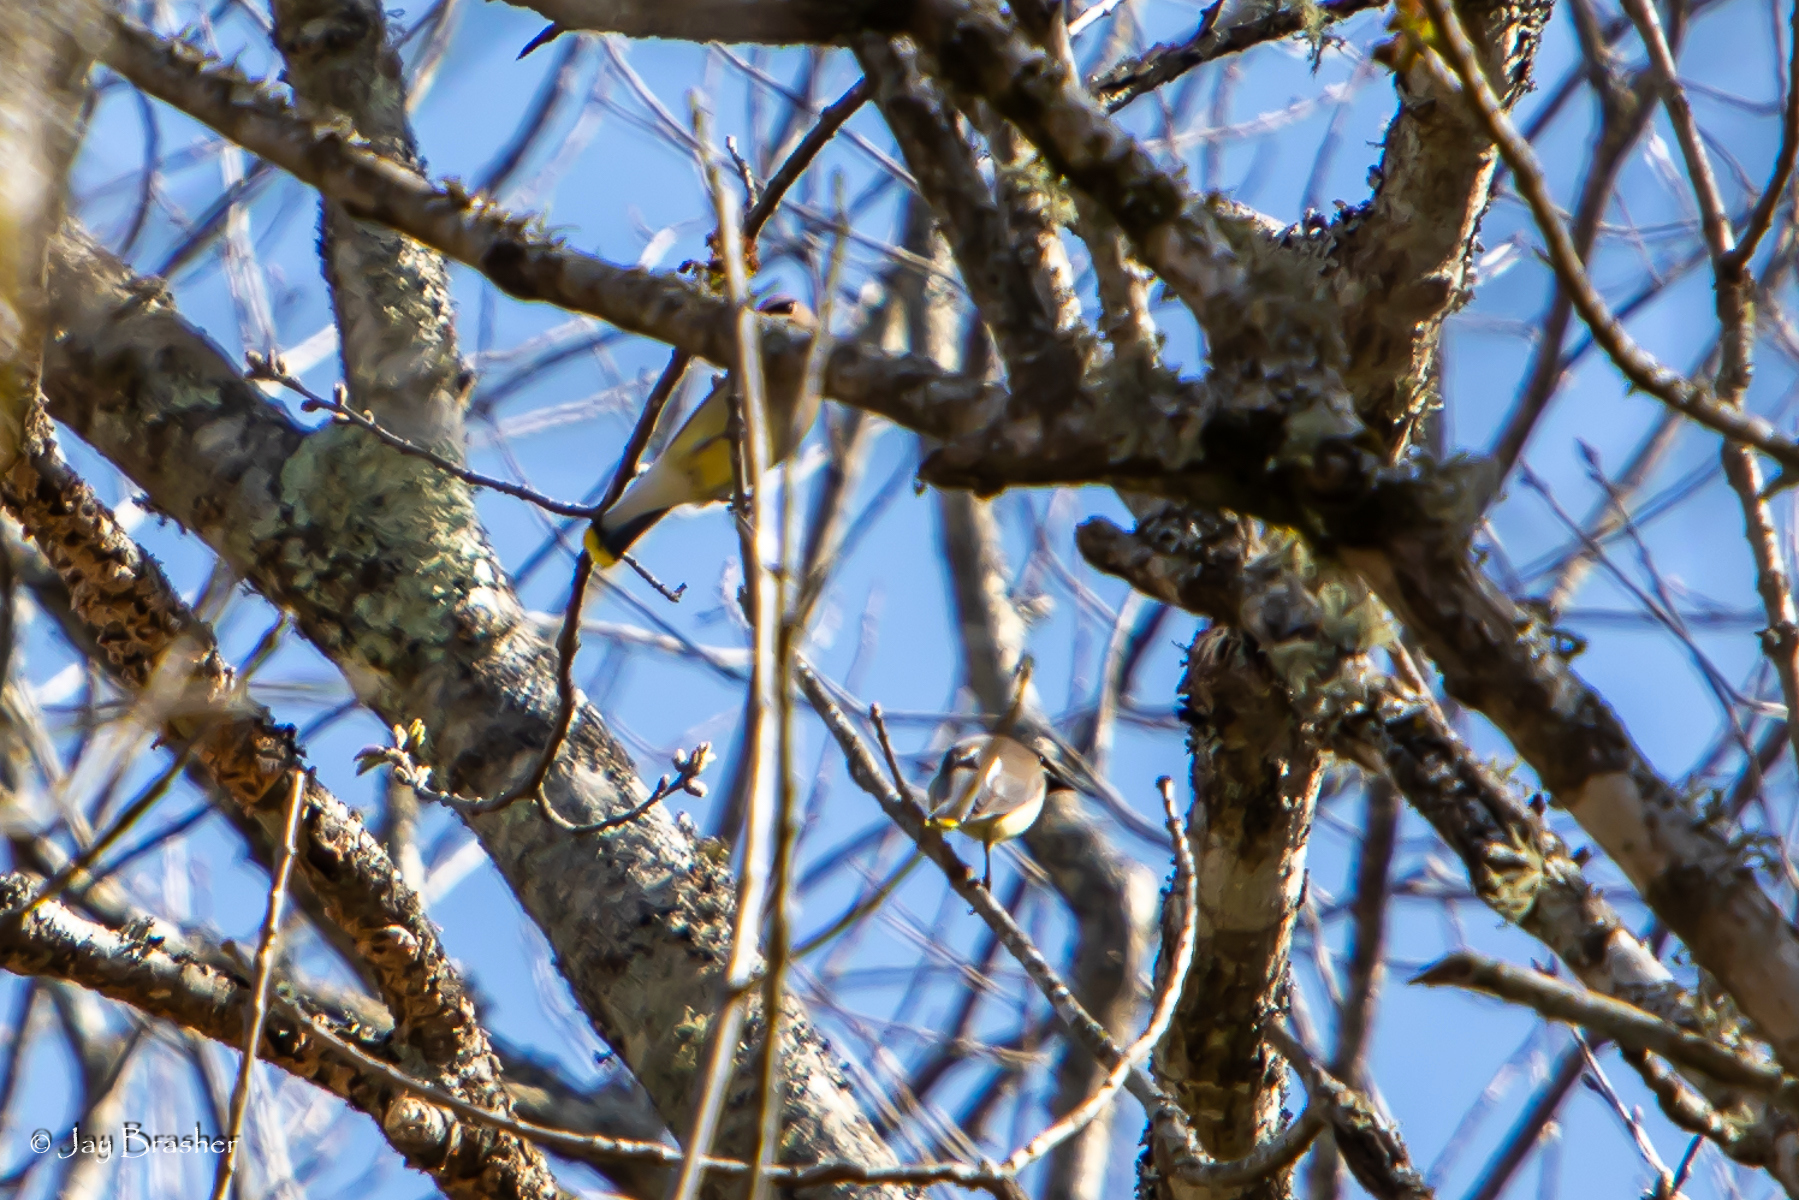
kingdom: Animalia
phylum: Chordata
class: Aves
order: Passeriformes
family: Bombycillidae
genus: Bombycilla
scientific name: Bombycilla cedrorum
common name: Cedar waxwing
